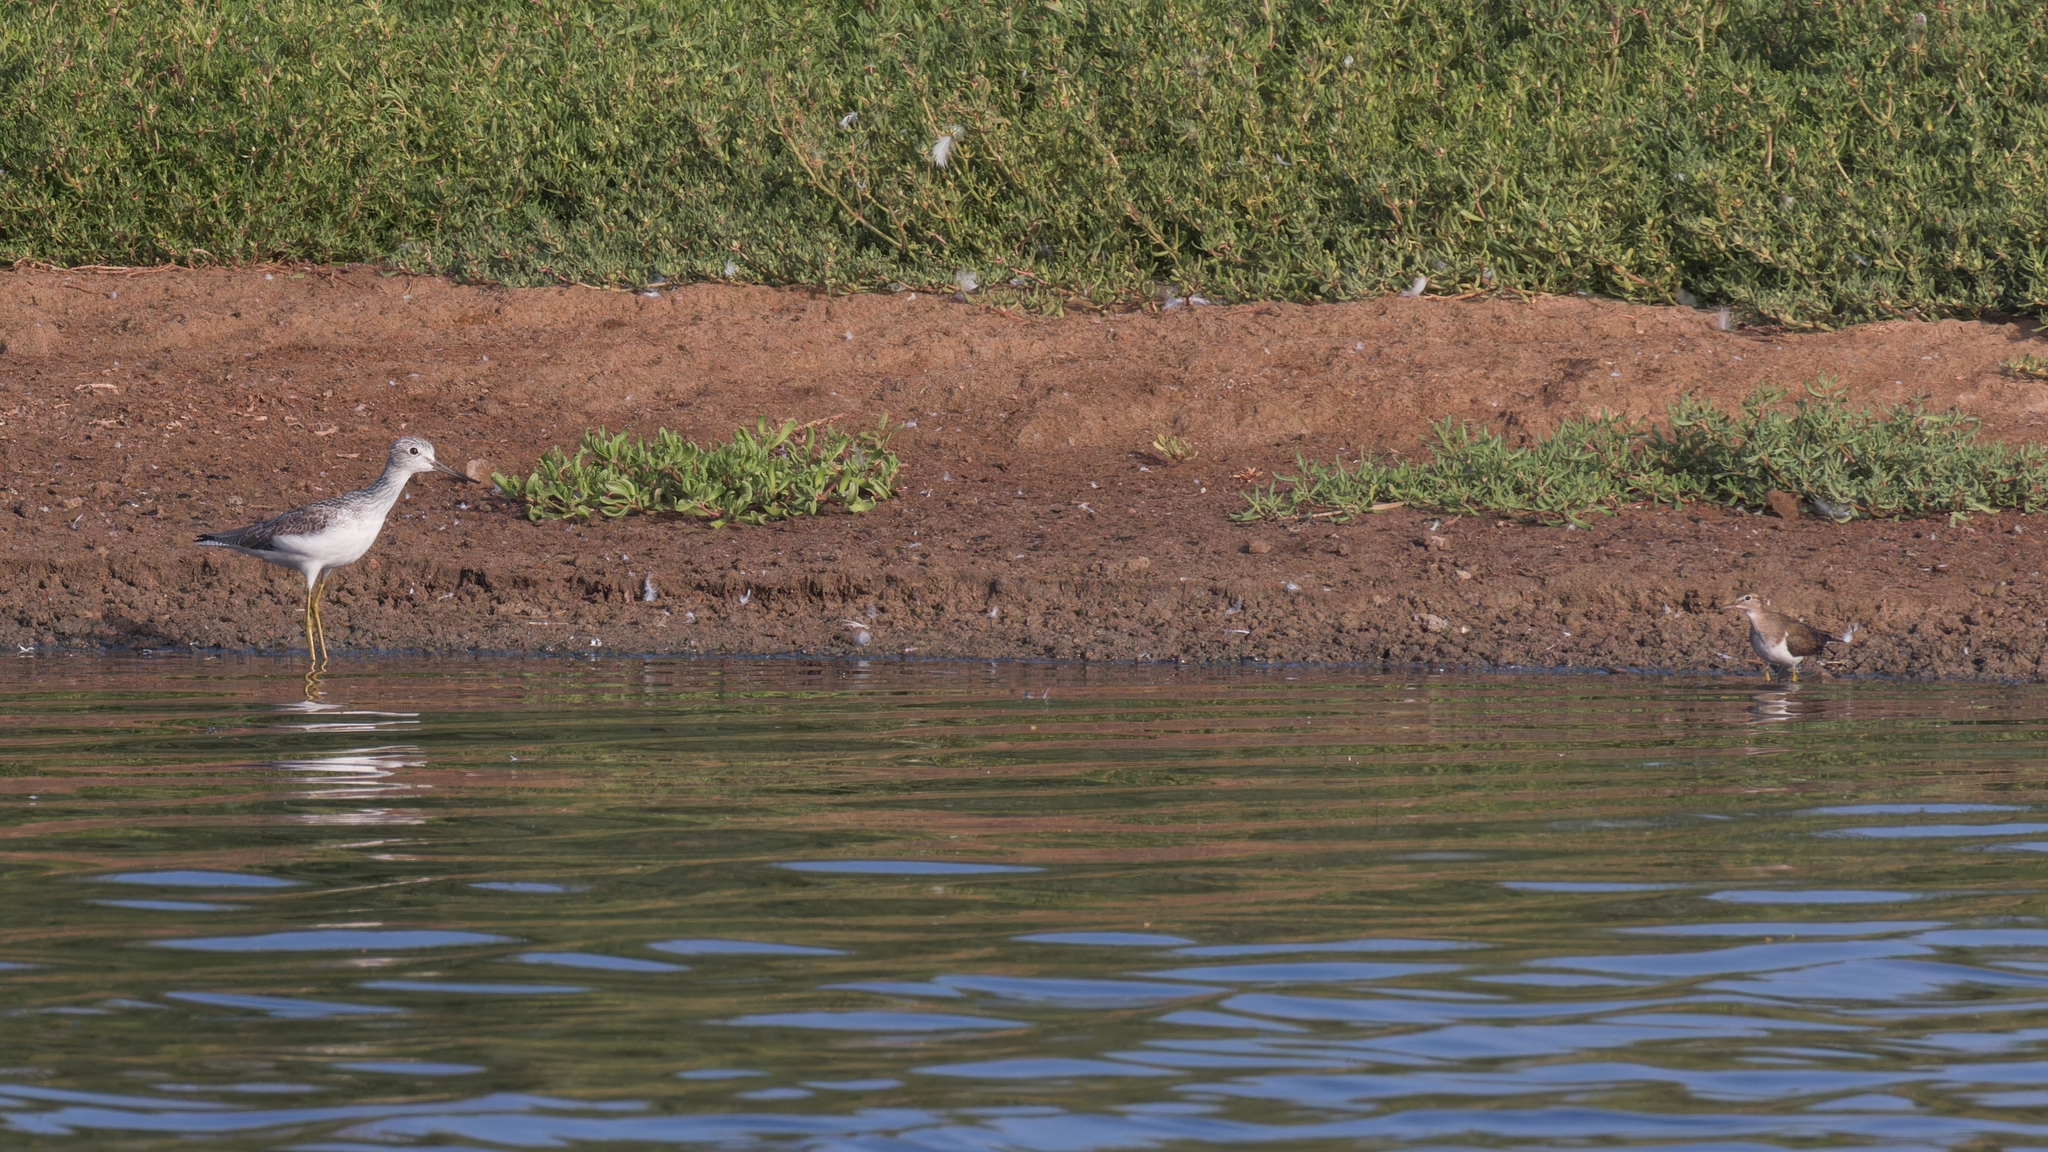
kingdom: Animalia
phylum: Chordata
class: Aves
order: Charadriiformes
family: Scolopacidae
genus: Tringa
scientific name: Tringa nebularia
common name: Common greenshank
